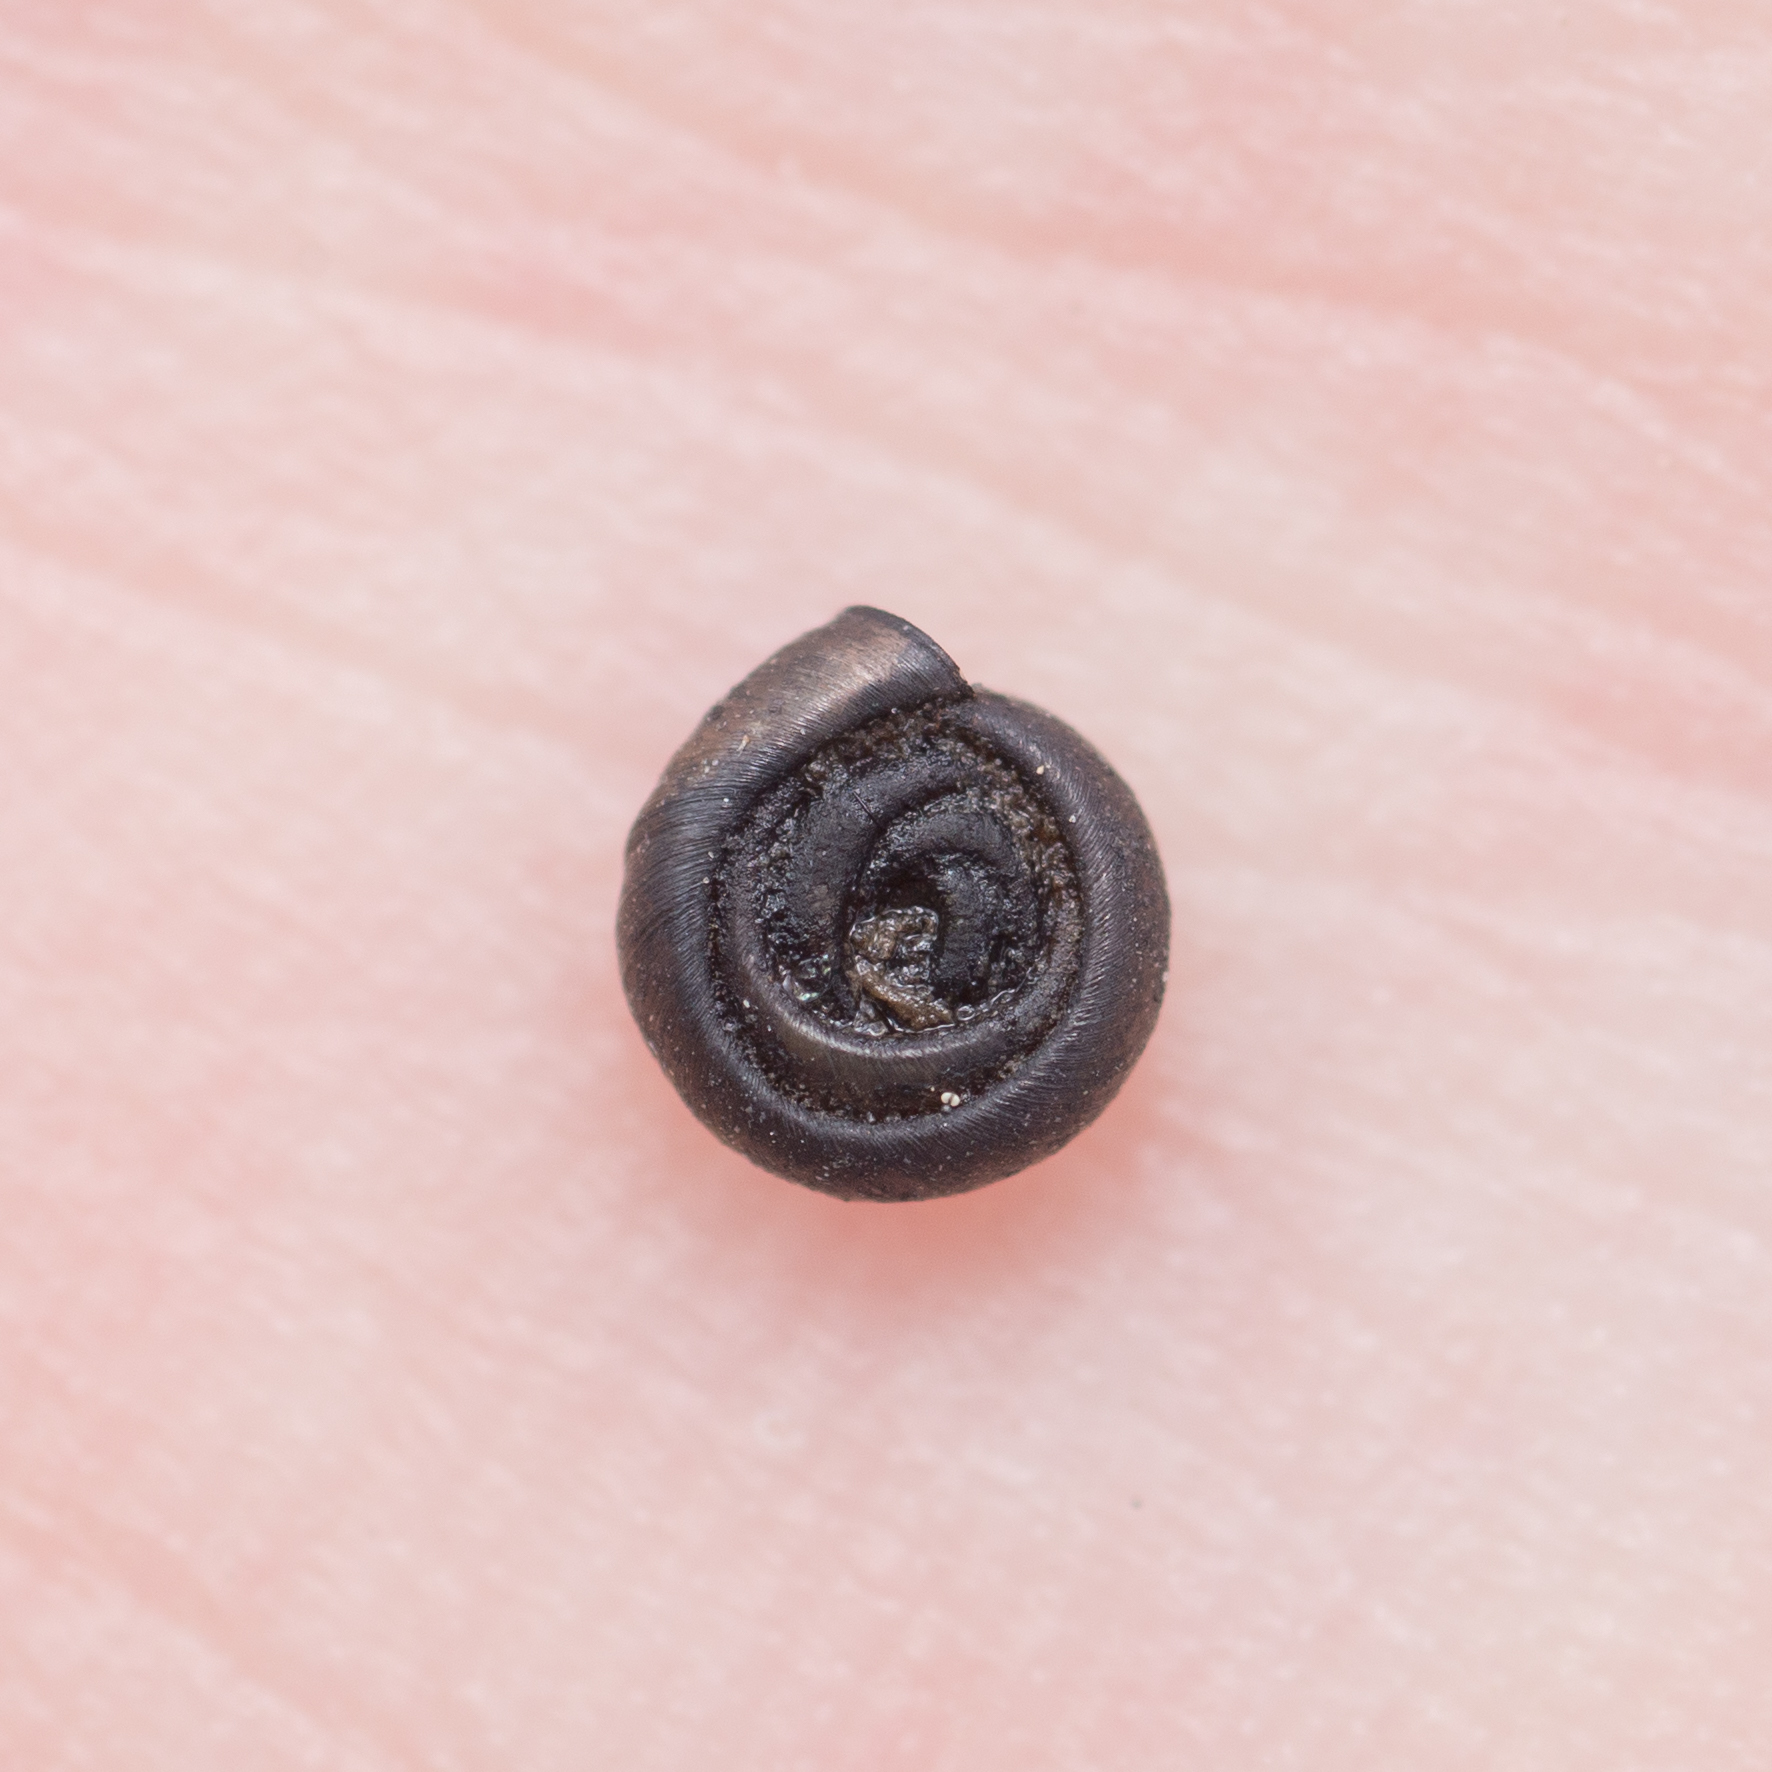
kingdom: Animalia
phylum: Mollusca
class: Gastropoda
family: Planorbidae
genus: Bathyomphalus
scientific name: Bathyomphalus contortus
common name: Twisted ramshorn
